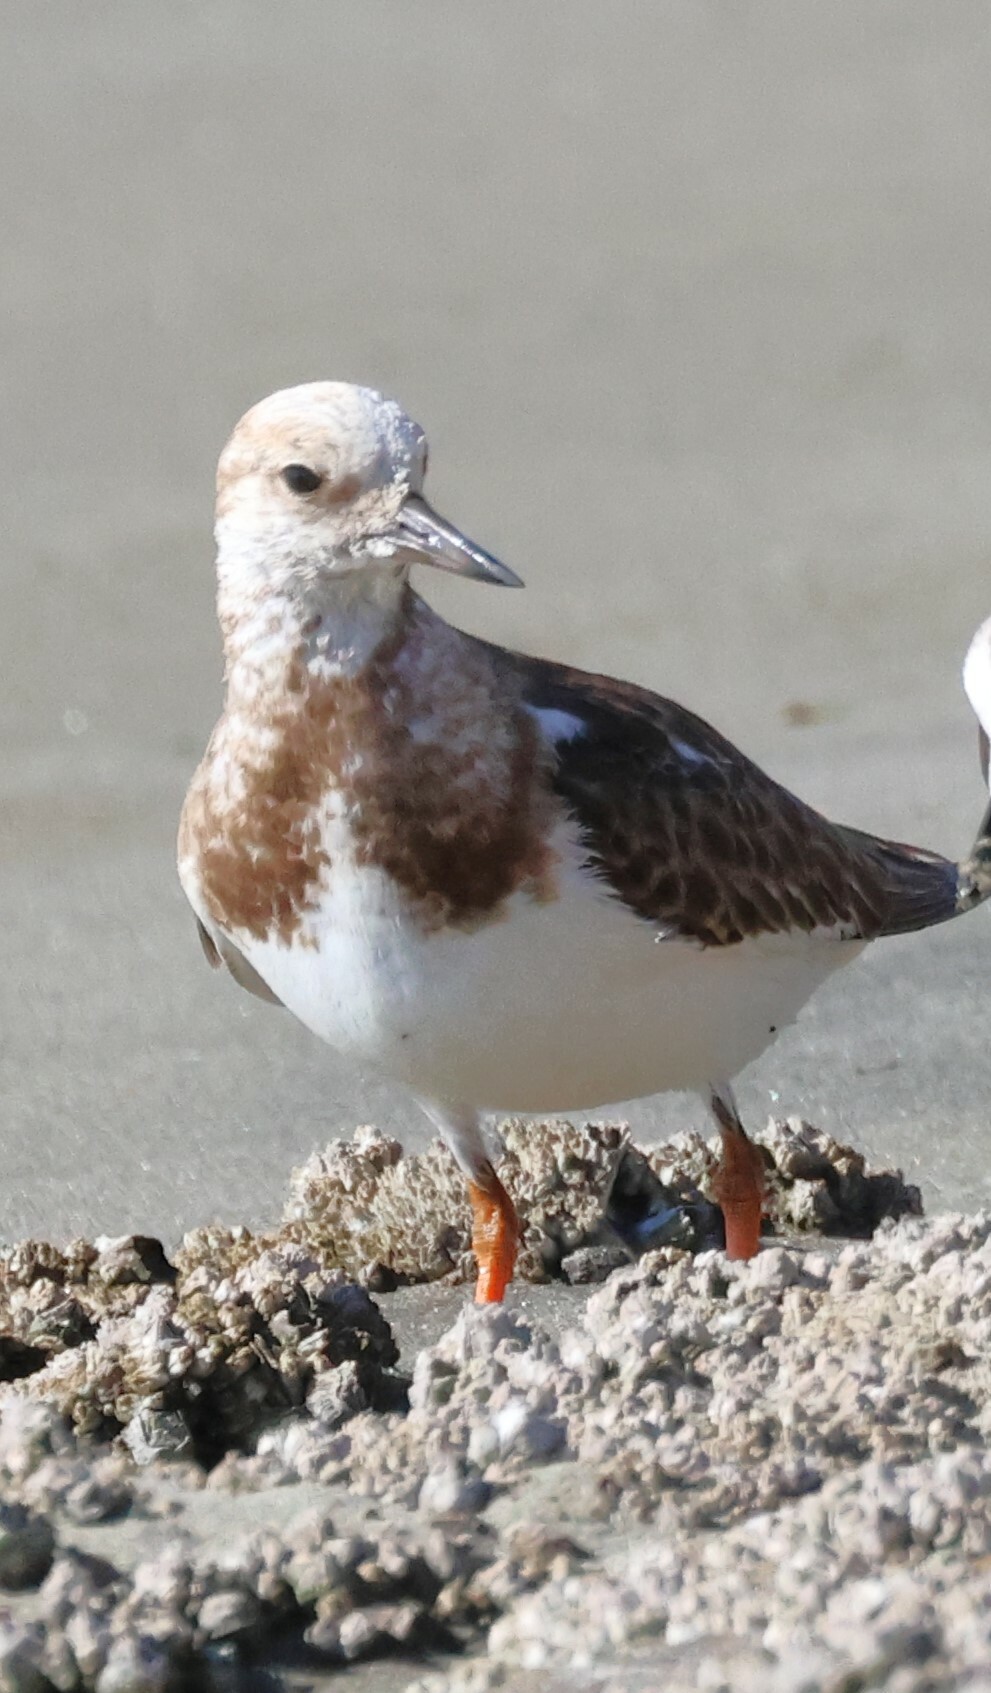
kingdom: Animalia
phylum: Chordata
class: Aves
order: Charadriiformes
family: Scolopacidae
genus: Arenaria
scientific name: Arenaria interpres
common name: Ruddy turnstone
